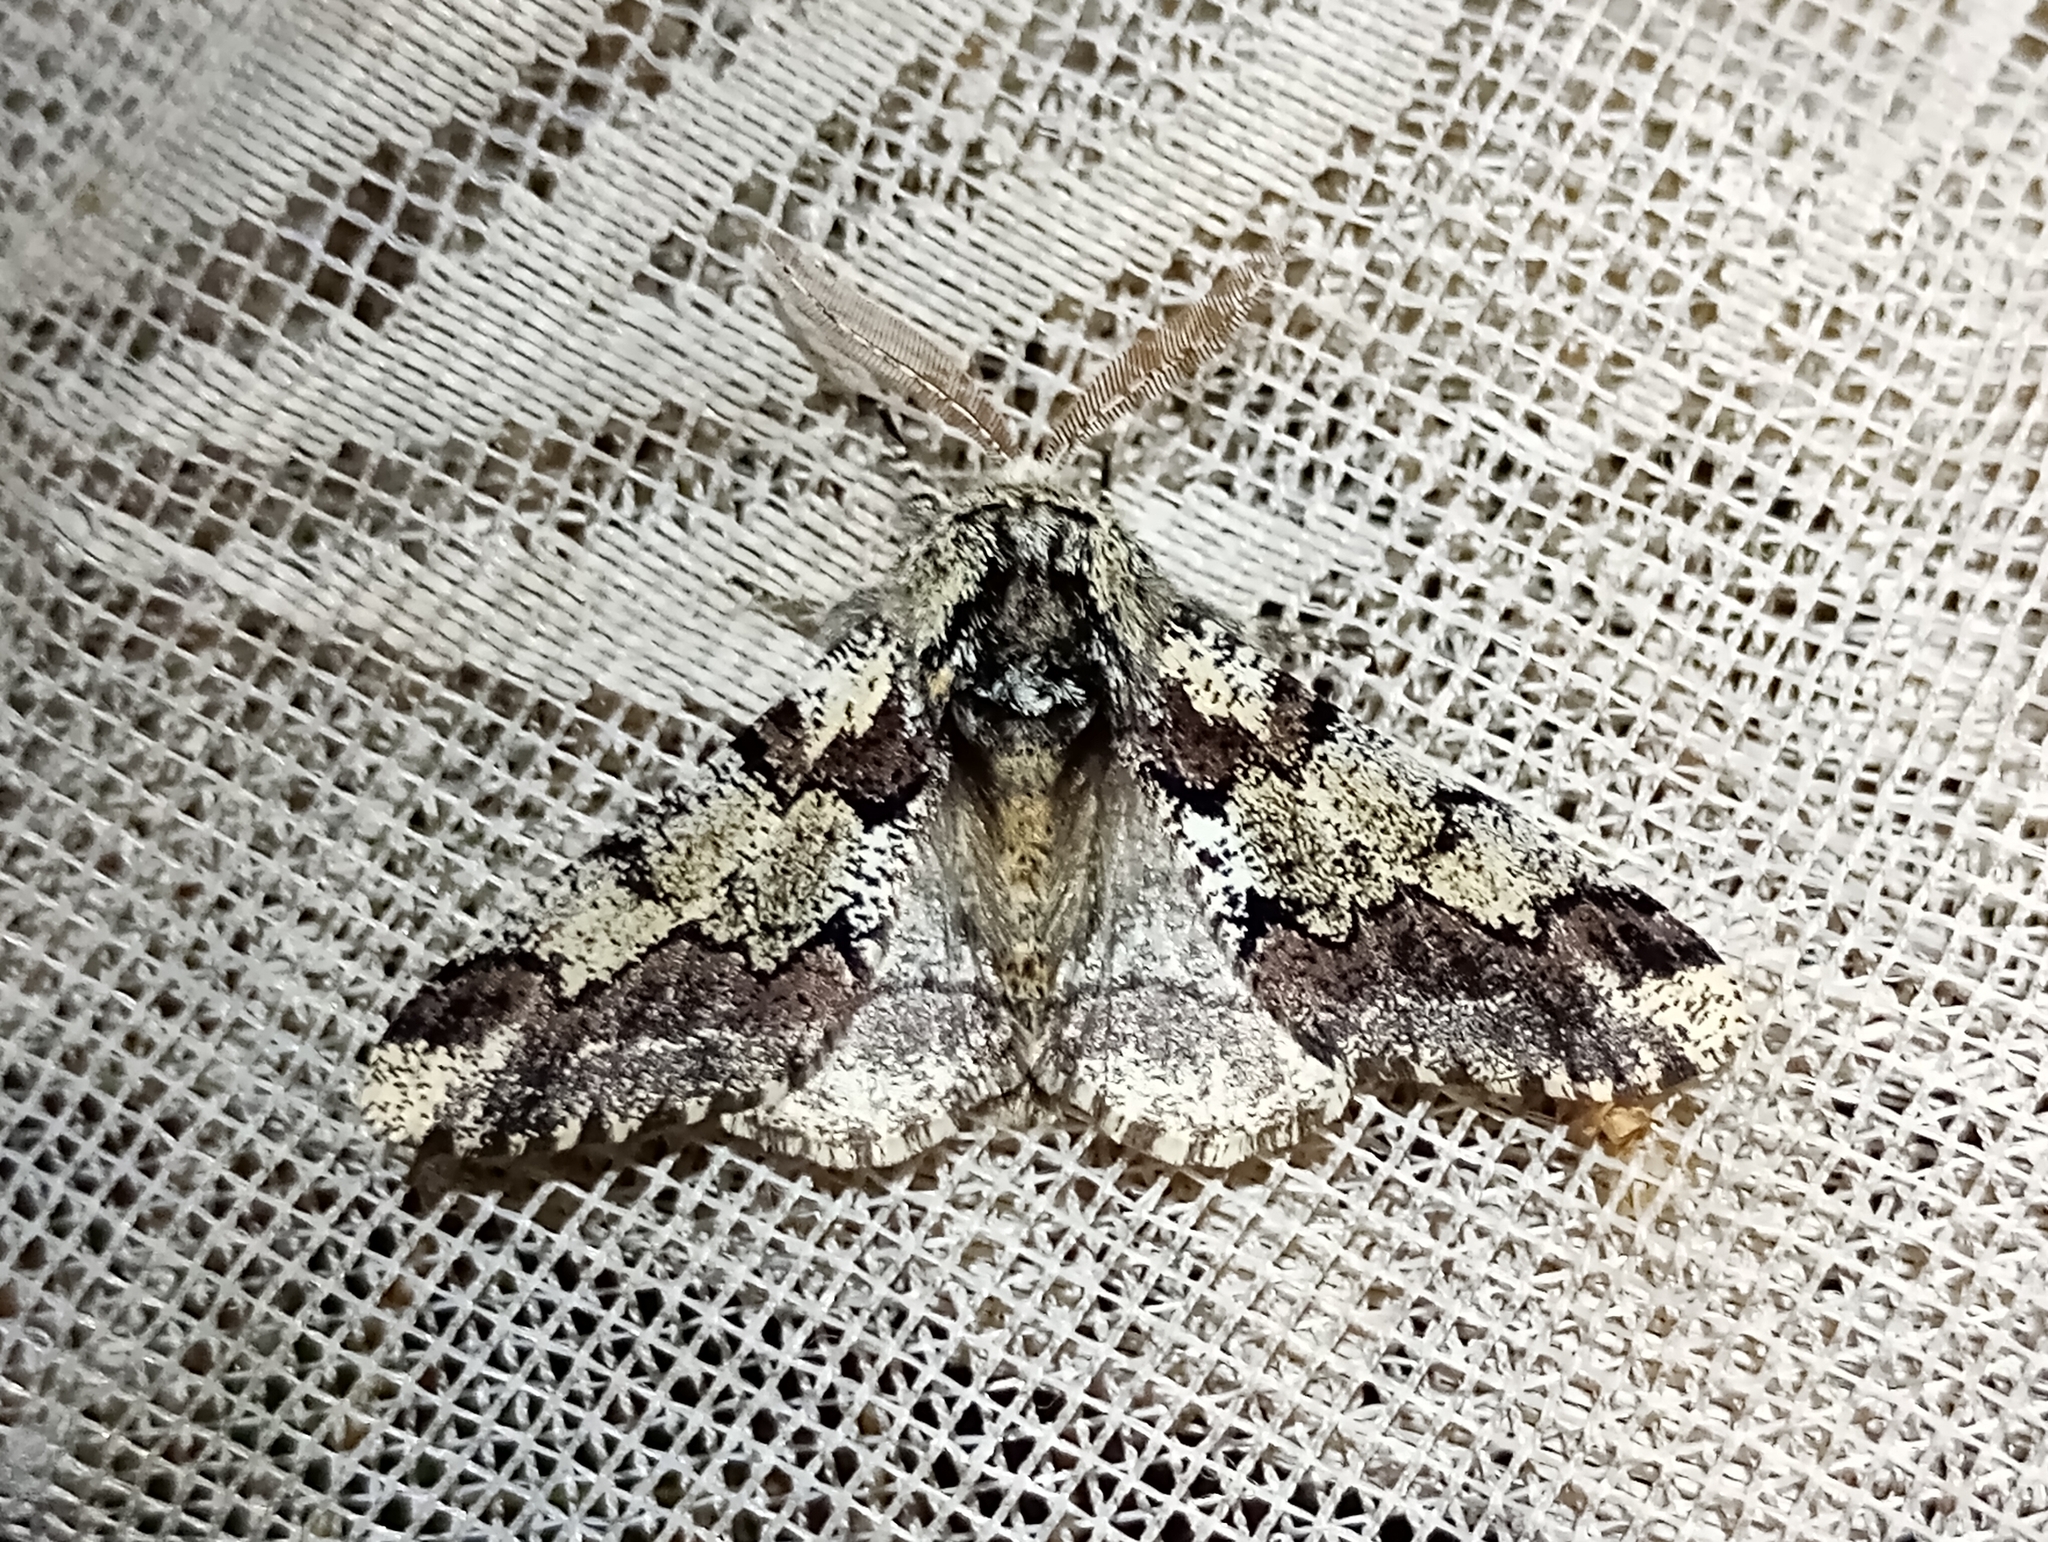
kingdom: Animalia
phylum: Arthropoda
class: Insecta
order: Lepidoptera
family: Geometridae
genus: Biston
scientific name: Biston strataria
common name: Oak beauty
